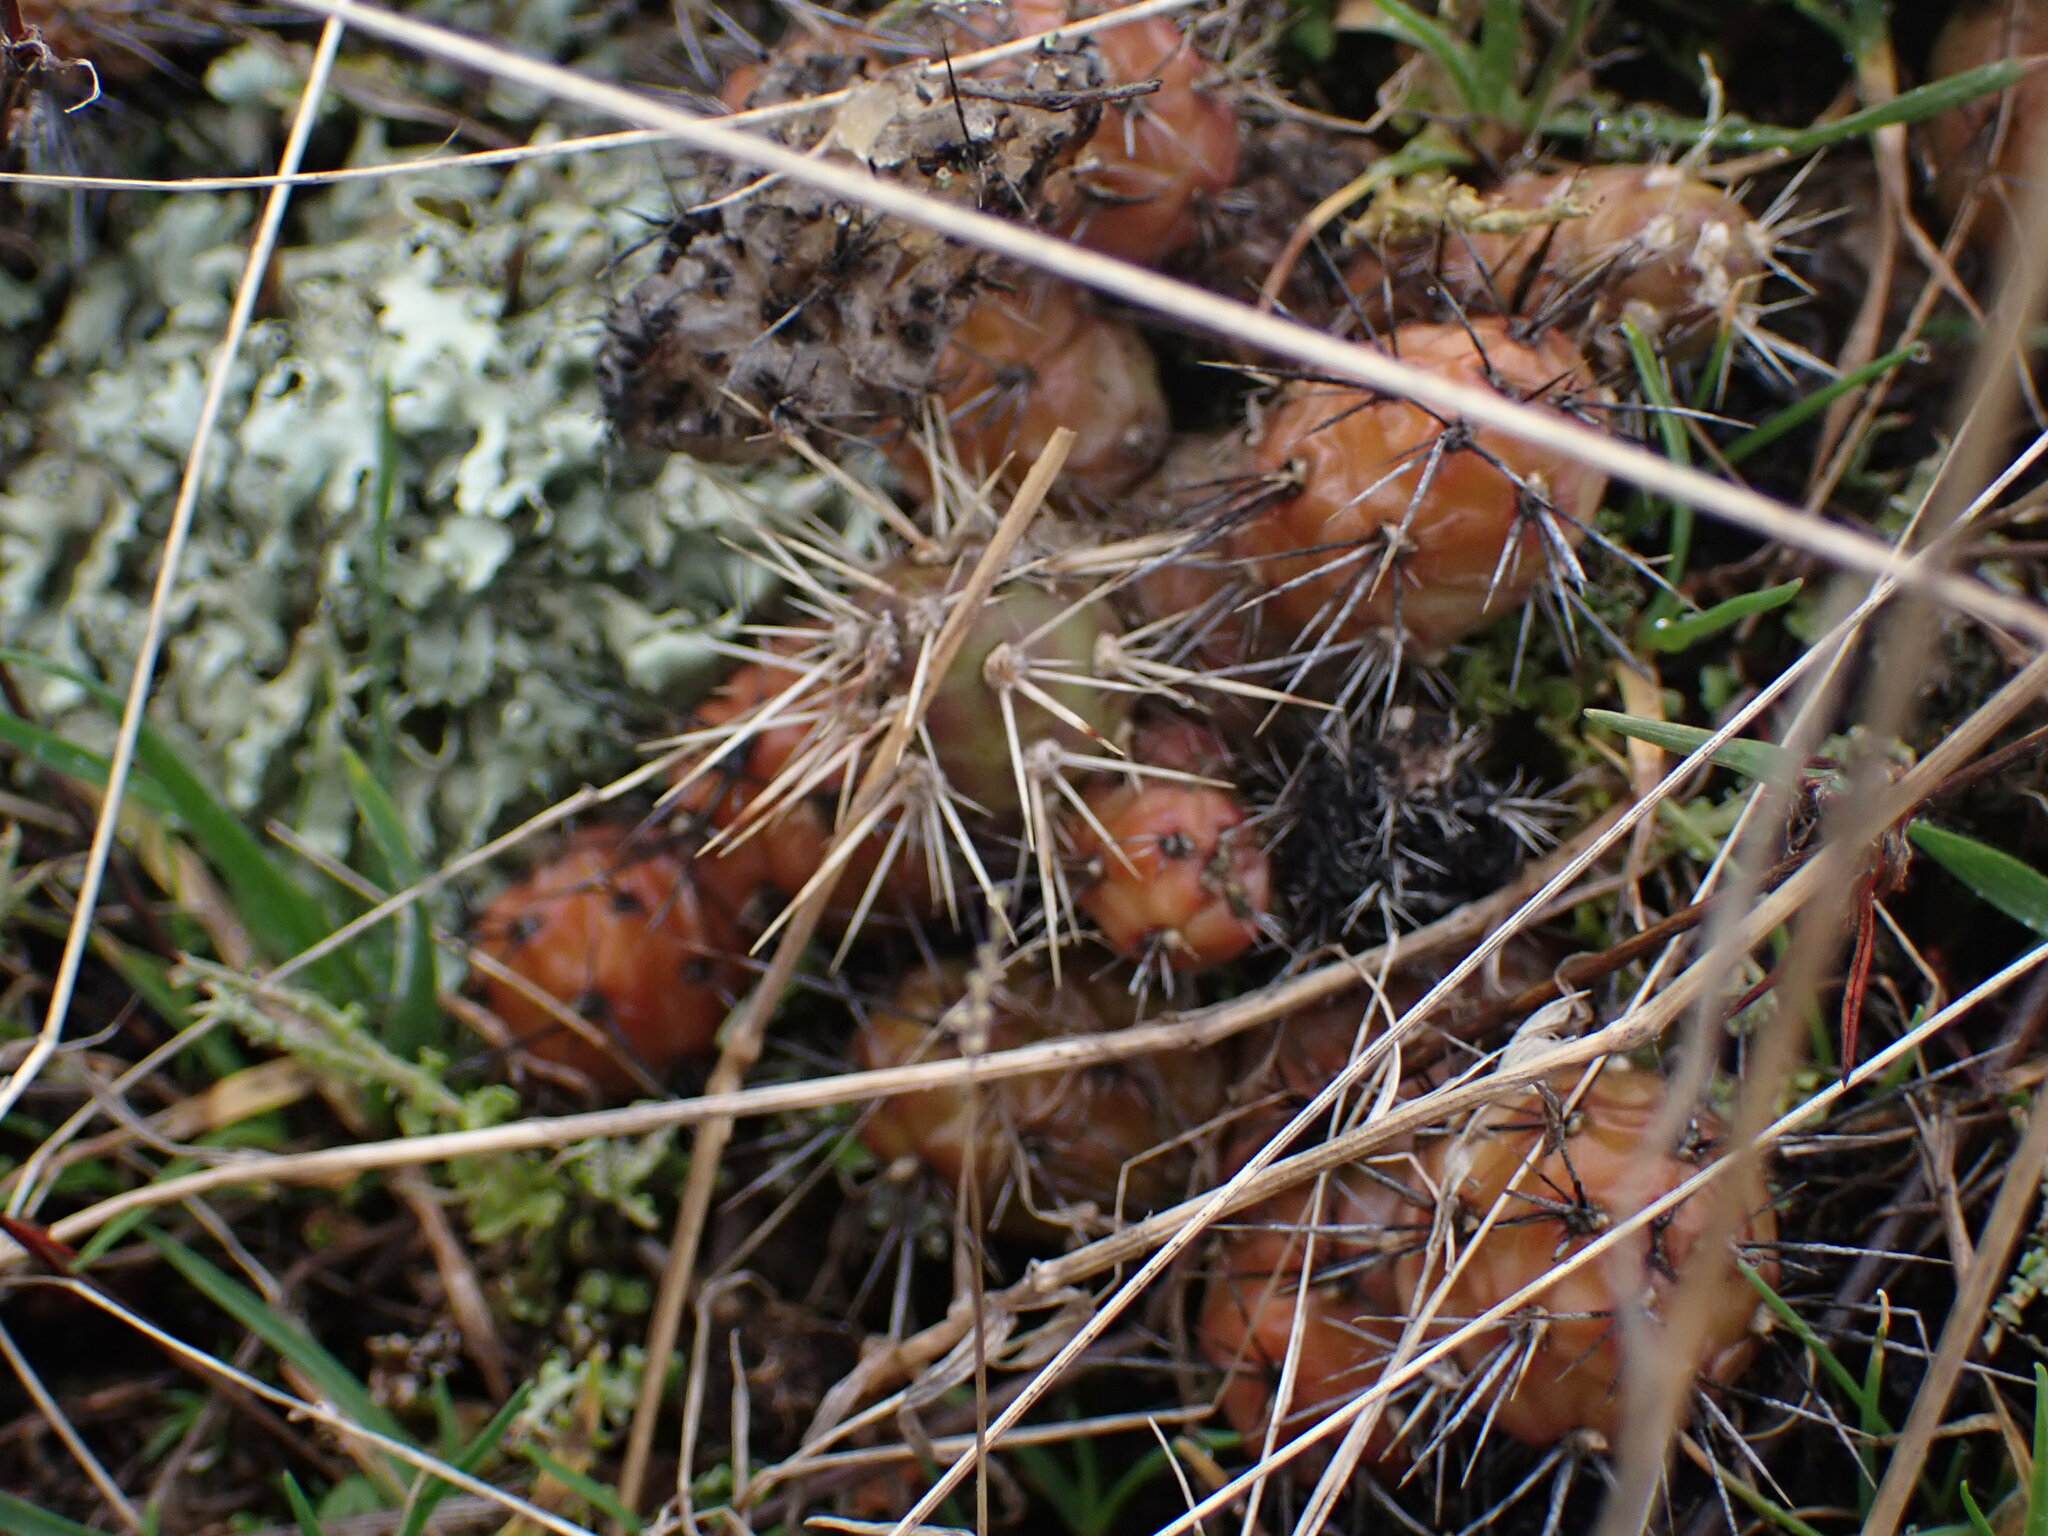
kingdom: Plantae
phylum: Tracheophyta
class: Magnoliopsida
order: Caryophyllales
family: Cactaceae
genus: Opuntia
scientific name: Opuntia fragilis
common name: Brittle cactus
